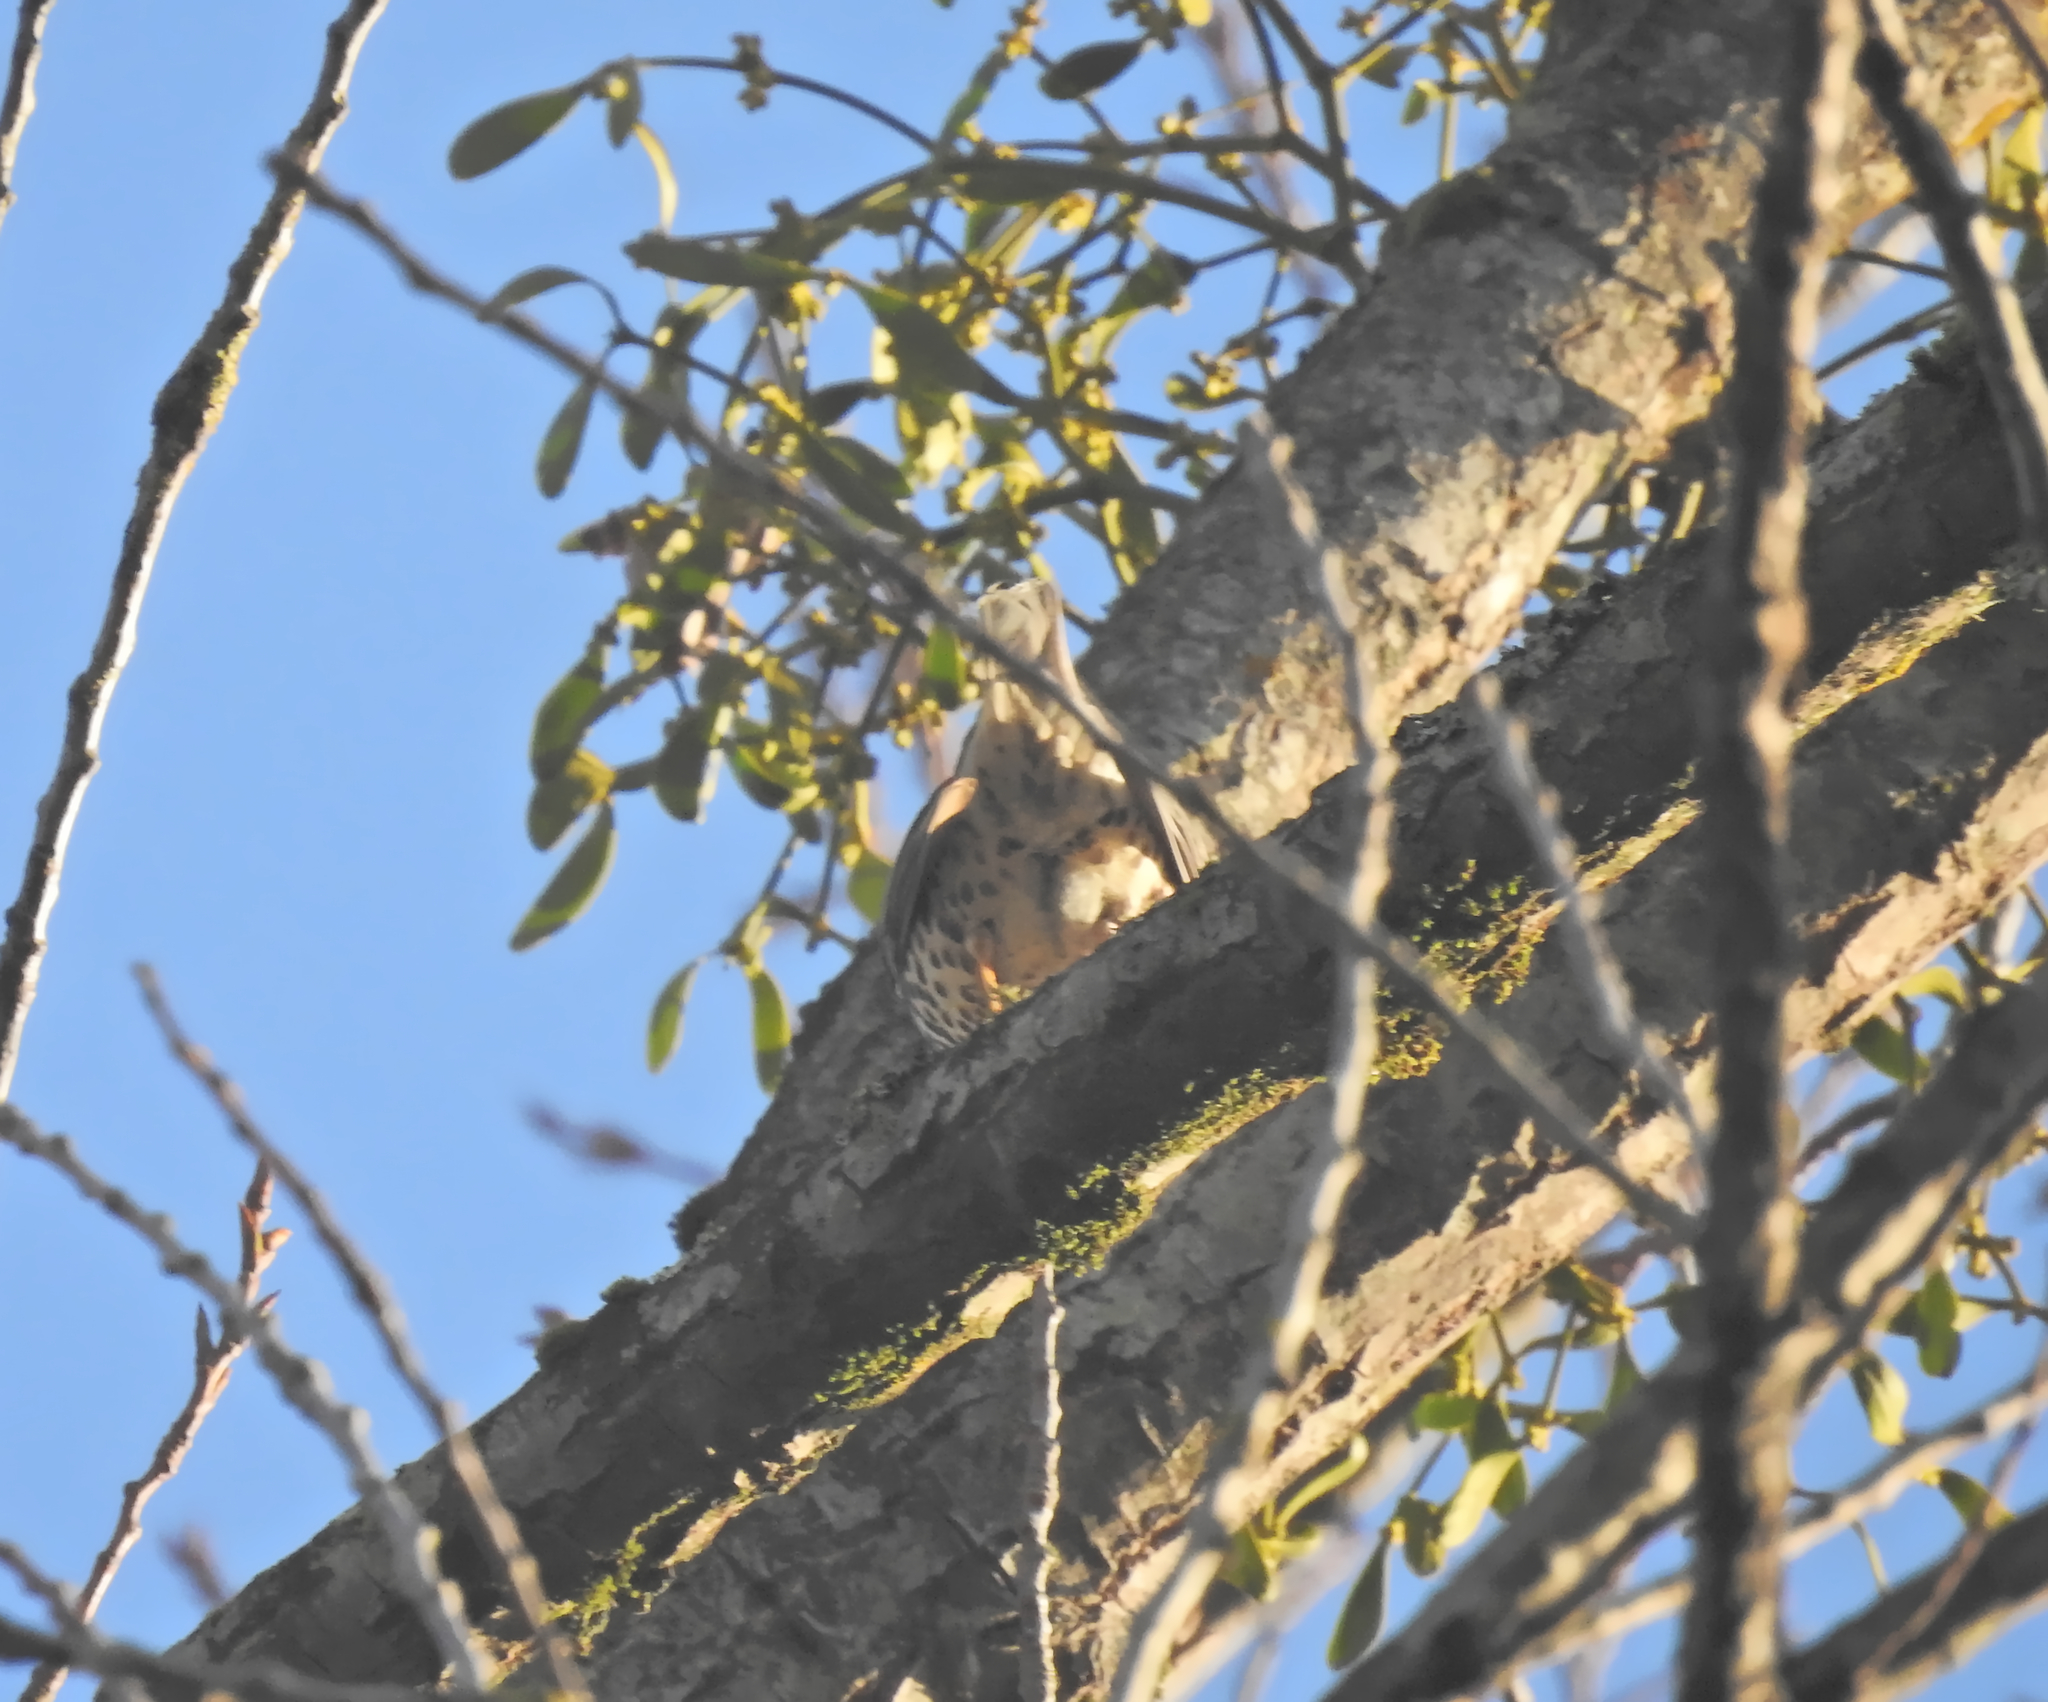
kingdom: Animalia
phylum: Chordata
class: Aves
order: Passeriformes
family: Turdidae
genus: Turdus
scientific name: Turdus viscivorus
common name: Mistle thrush
